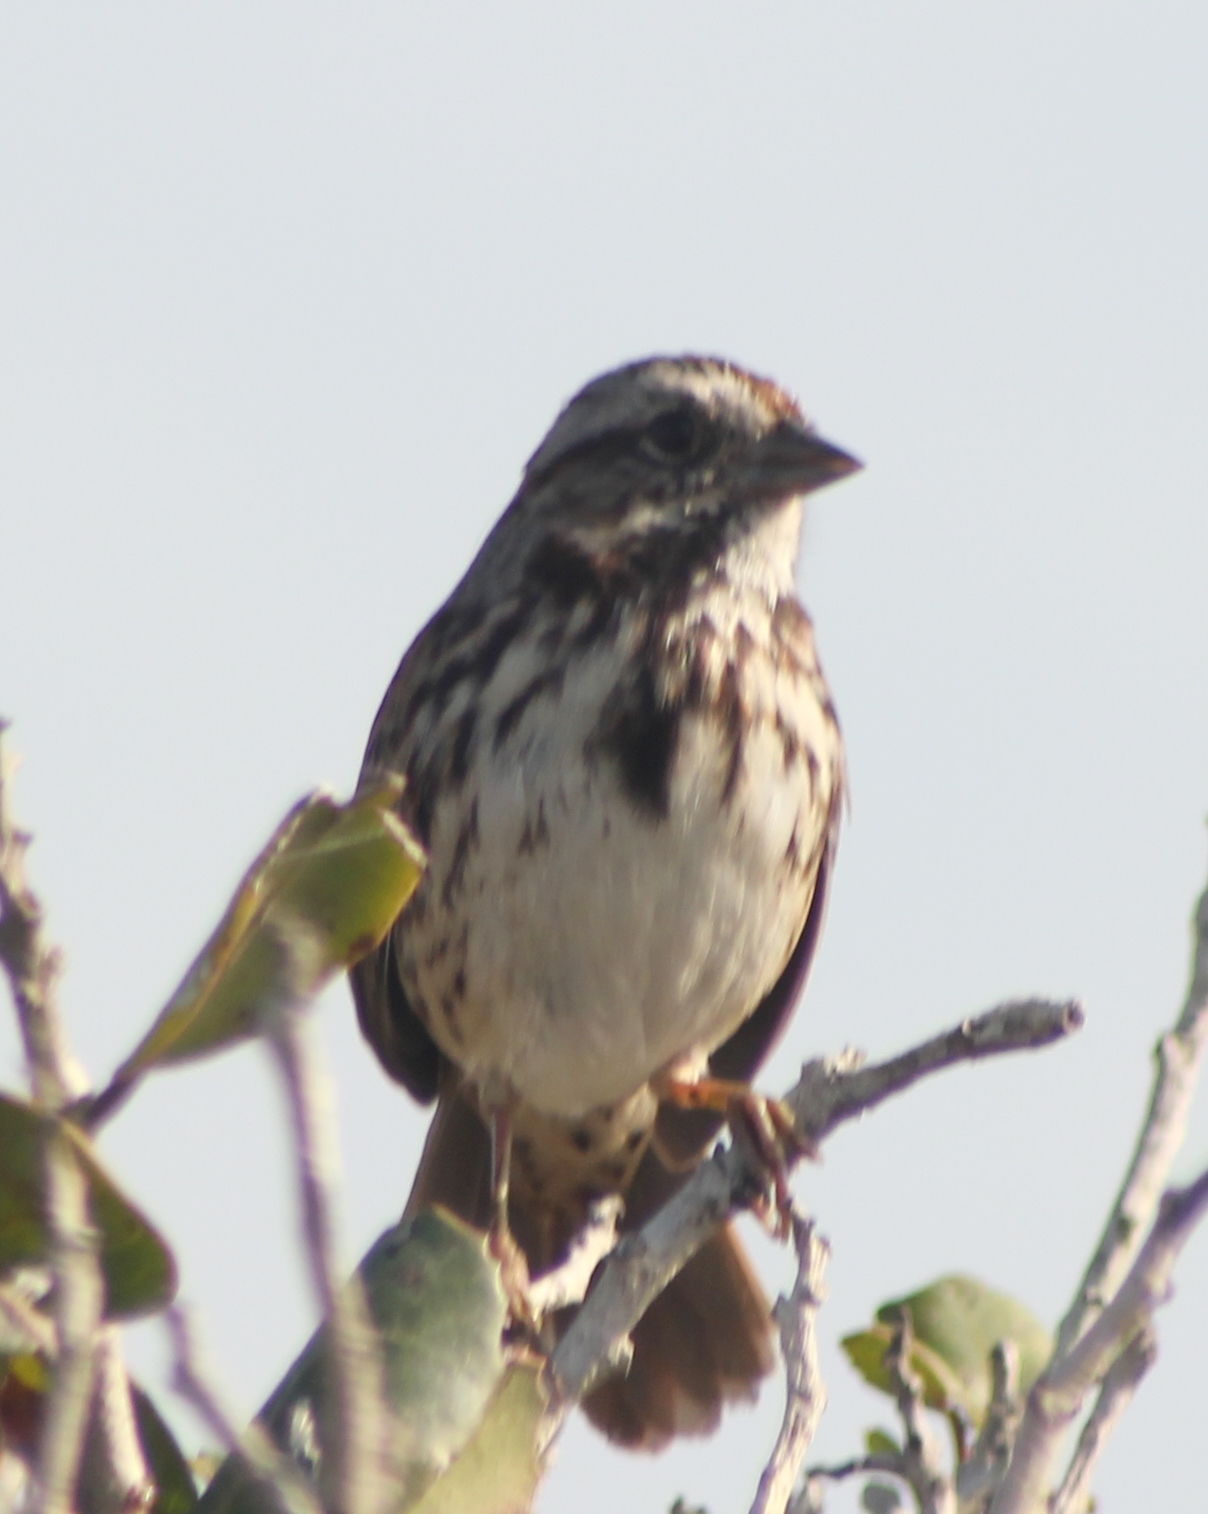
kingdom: Animalia
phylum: Chordata
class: Aves
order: Passeriformes
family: Passerellidae
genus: Melospiza
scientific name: Melospiza melodia
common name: Song sparrow
